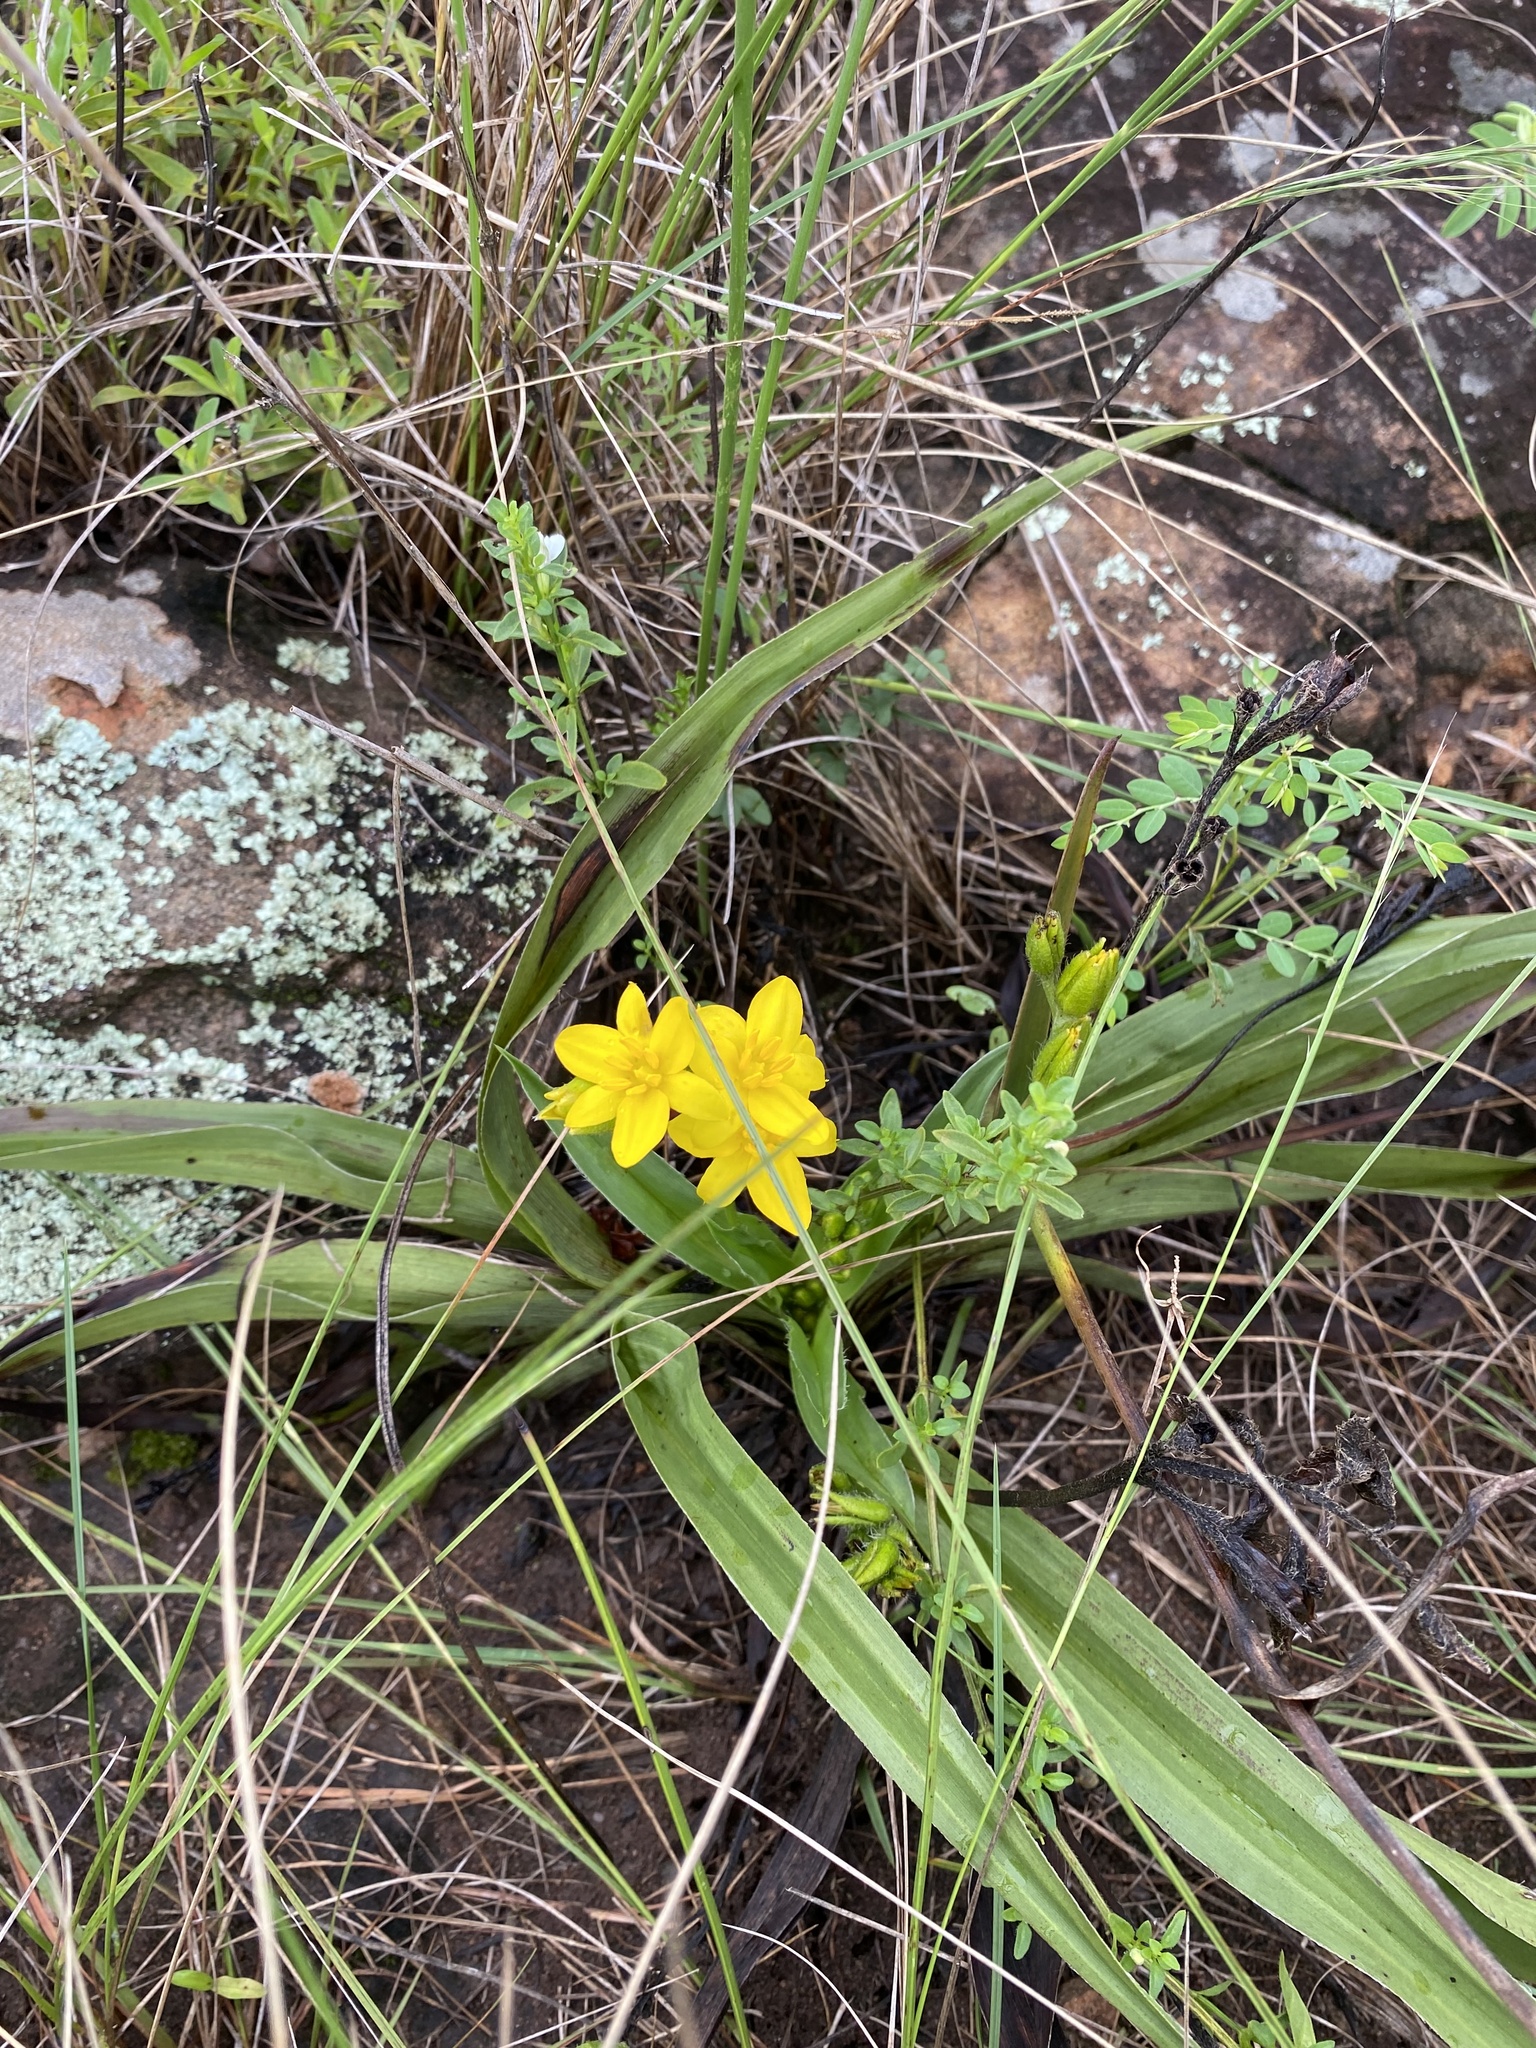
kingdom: Plantae
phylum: Tracheophyta
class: Liliopsida
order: Asparagales
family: Hypoxidaceae
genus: Hypoxis
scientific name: Hypoxis hemerocallidea
